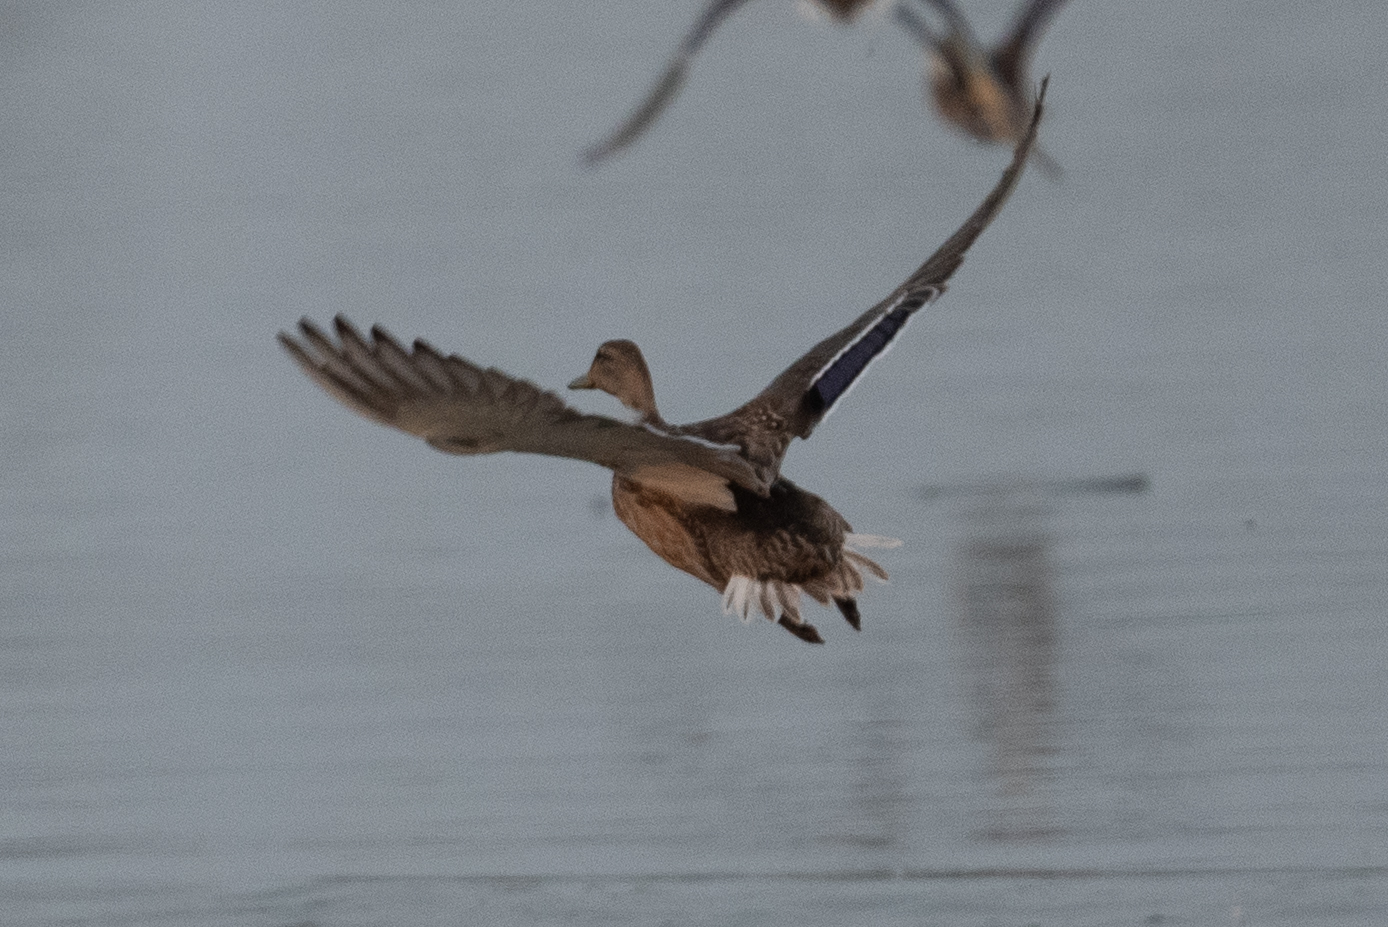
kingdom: Animalia
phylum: Chordata
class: Aves
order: Anseriformes
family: Anatidae
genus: Anas
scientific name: Anas platyrhynchos
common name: Mallard
